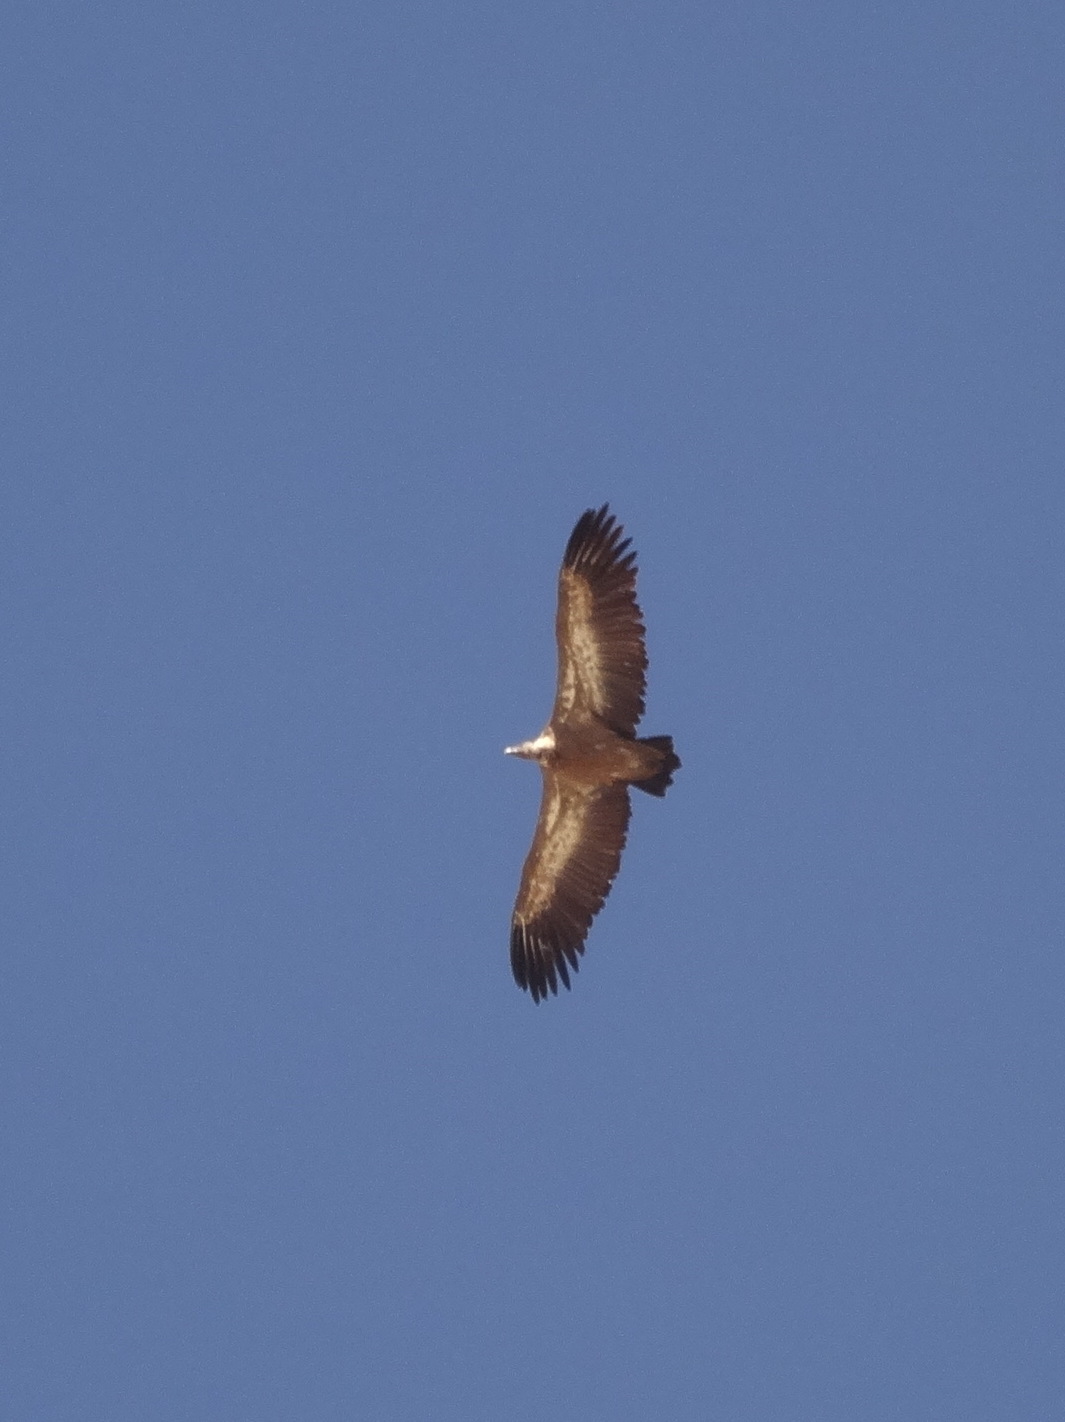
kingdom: Animalia
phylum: Chordata
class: Aves
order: Accipitriformes
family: Accipitridae
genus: Gyps
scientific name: Gyps fulvus
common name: Griffon vulture
